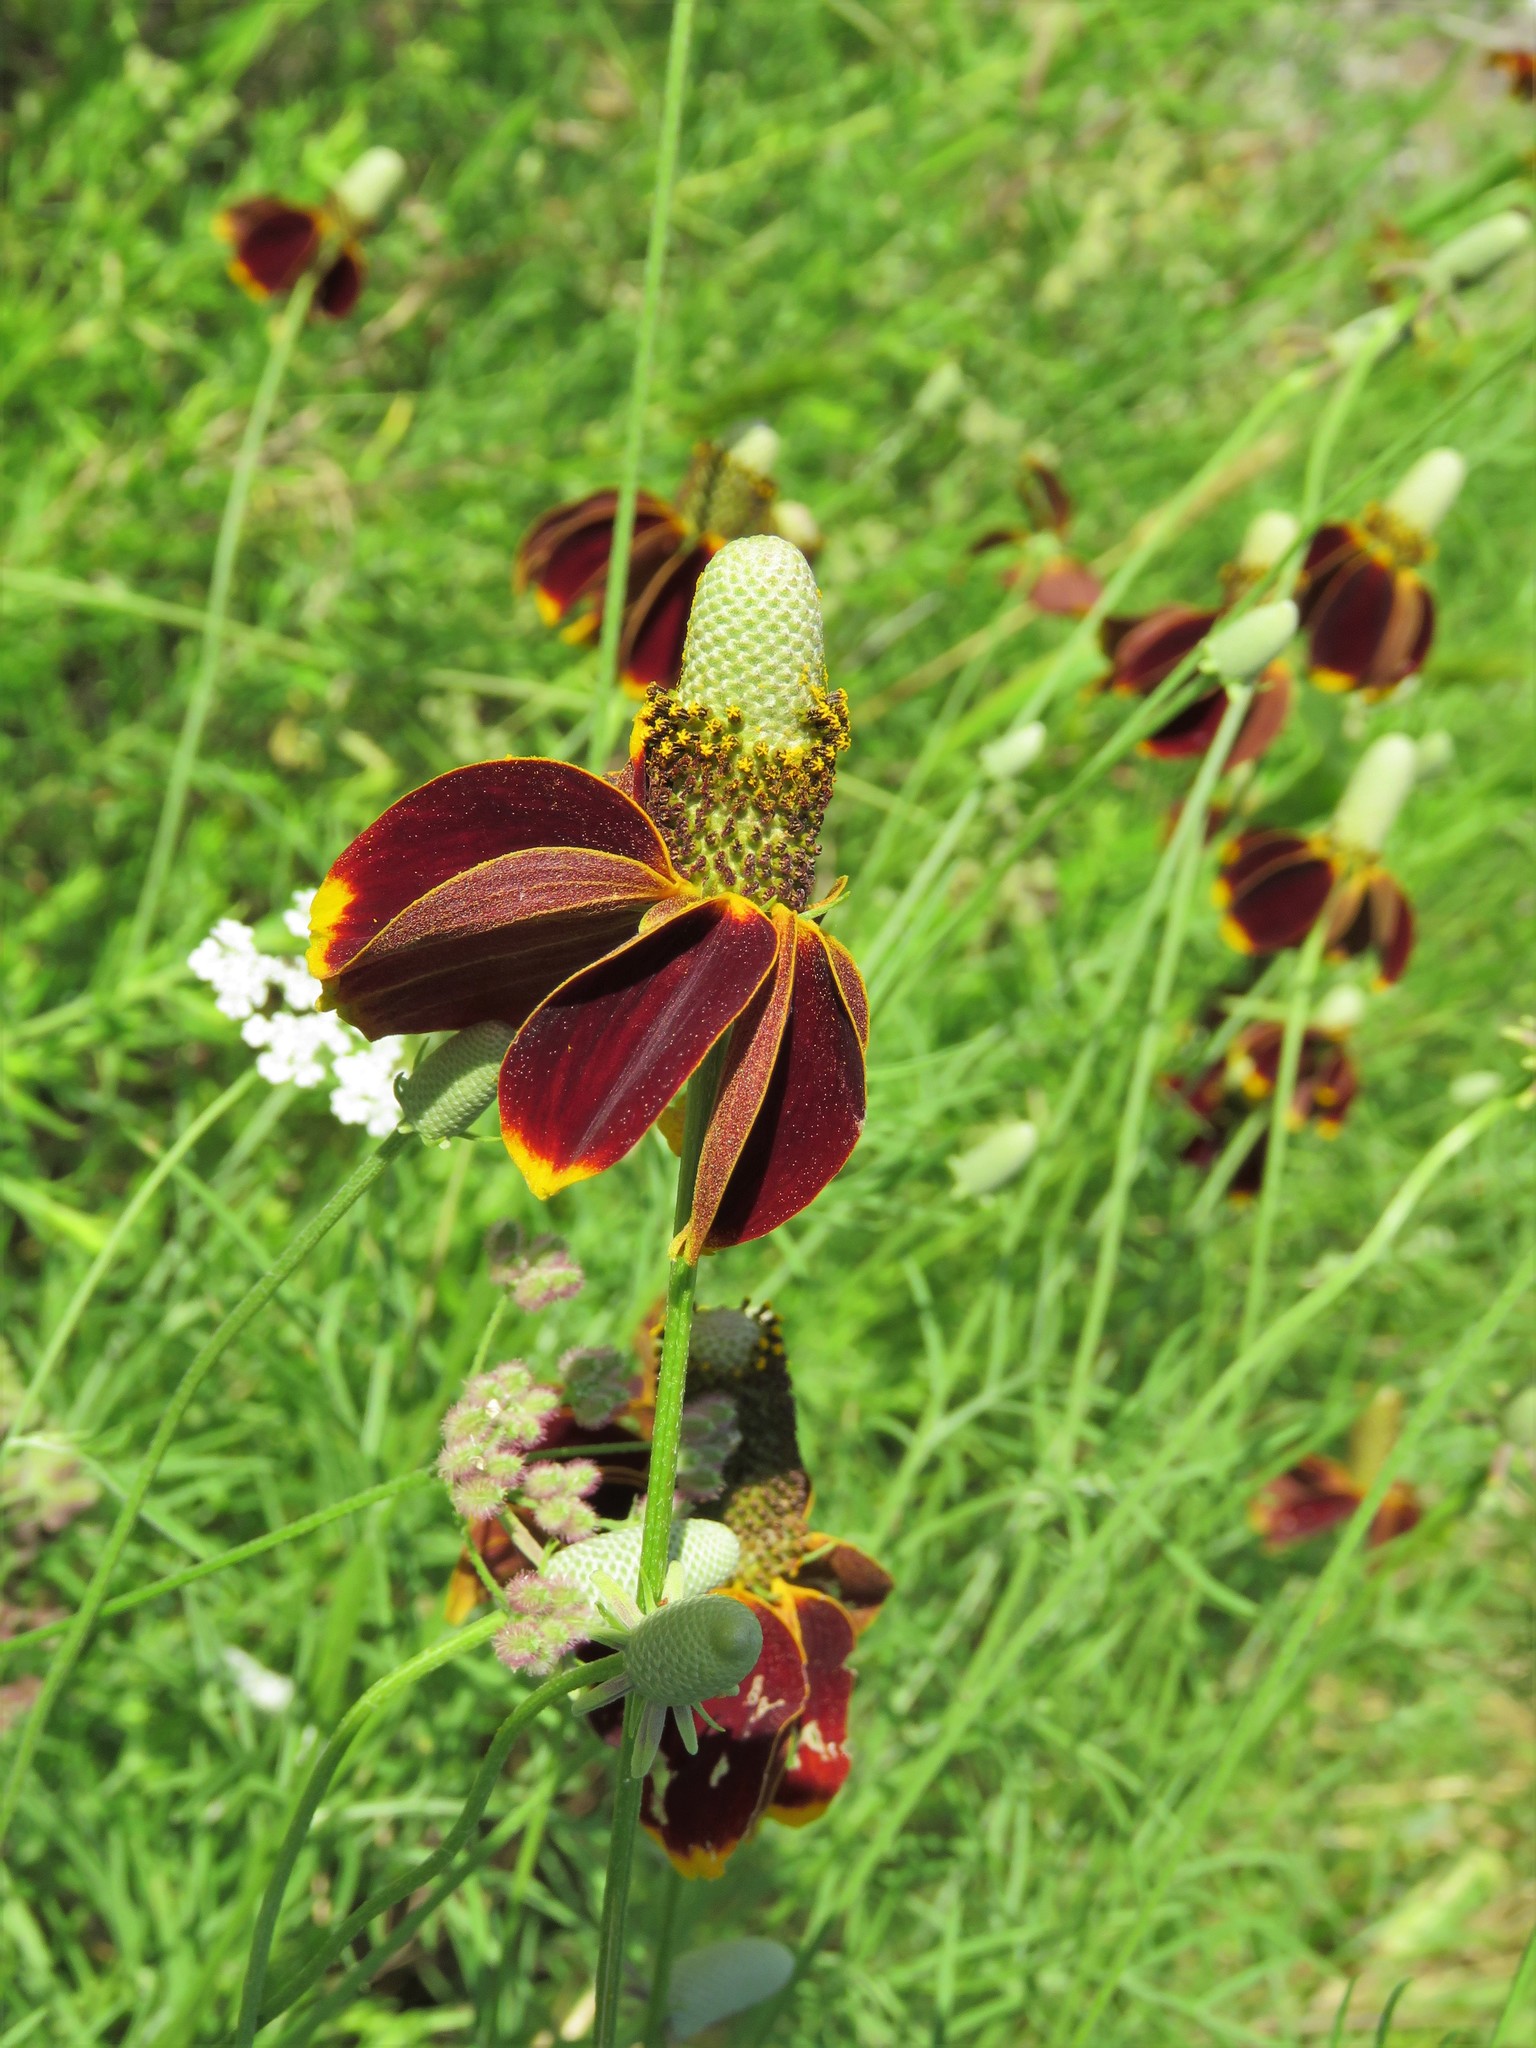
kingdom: Plantae
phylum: Tracheophyta
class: Magnoliopsida
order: Asterales
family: Asteraceae
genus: Ratibida
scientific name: Ratibida columnifera
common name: Prairie coneflower
